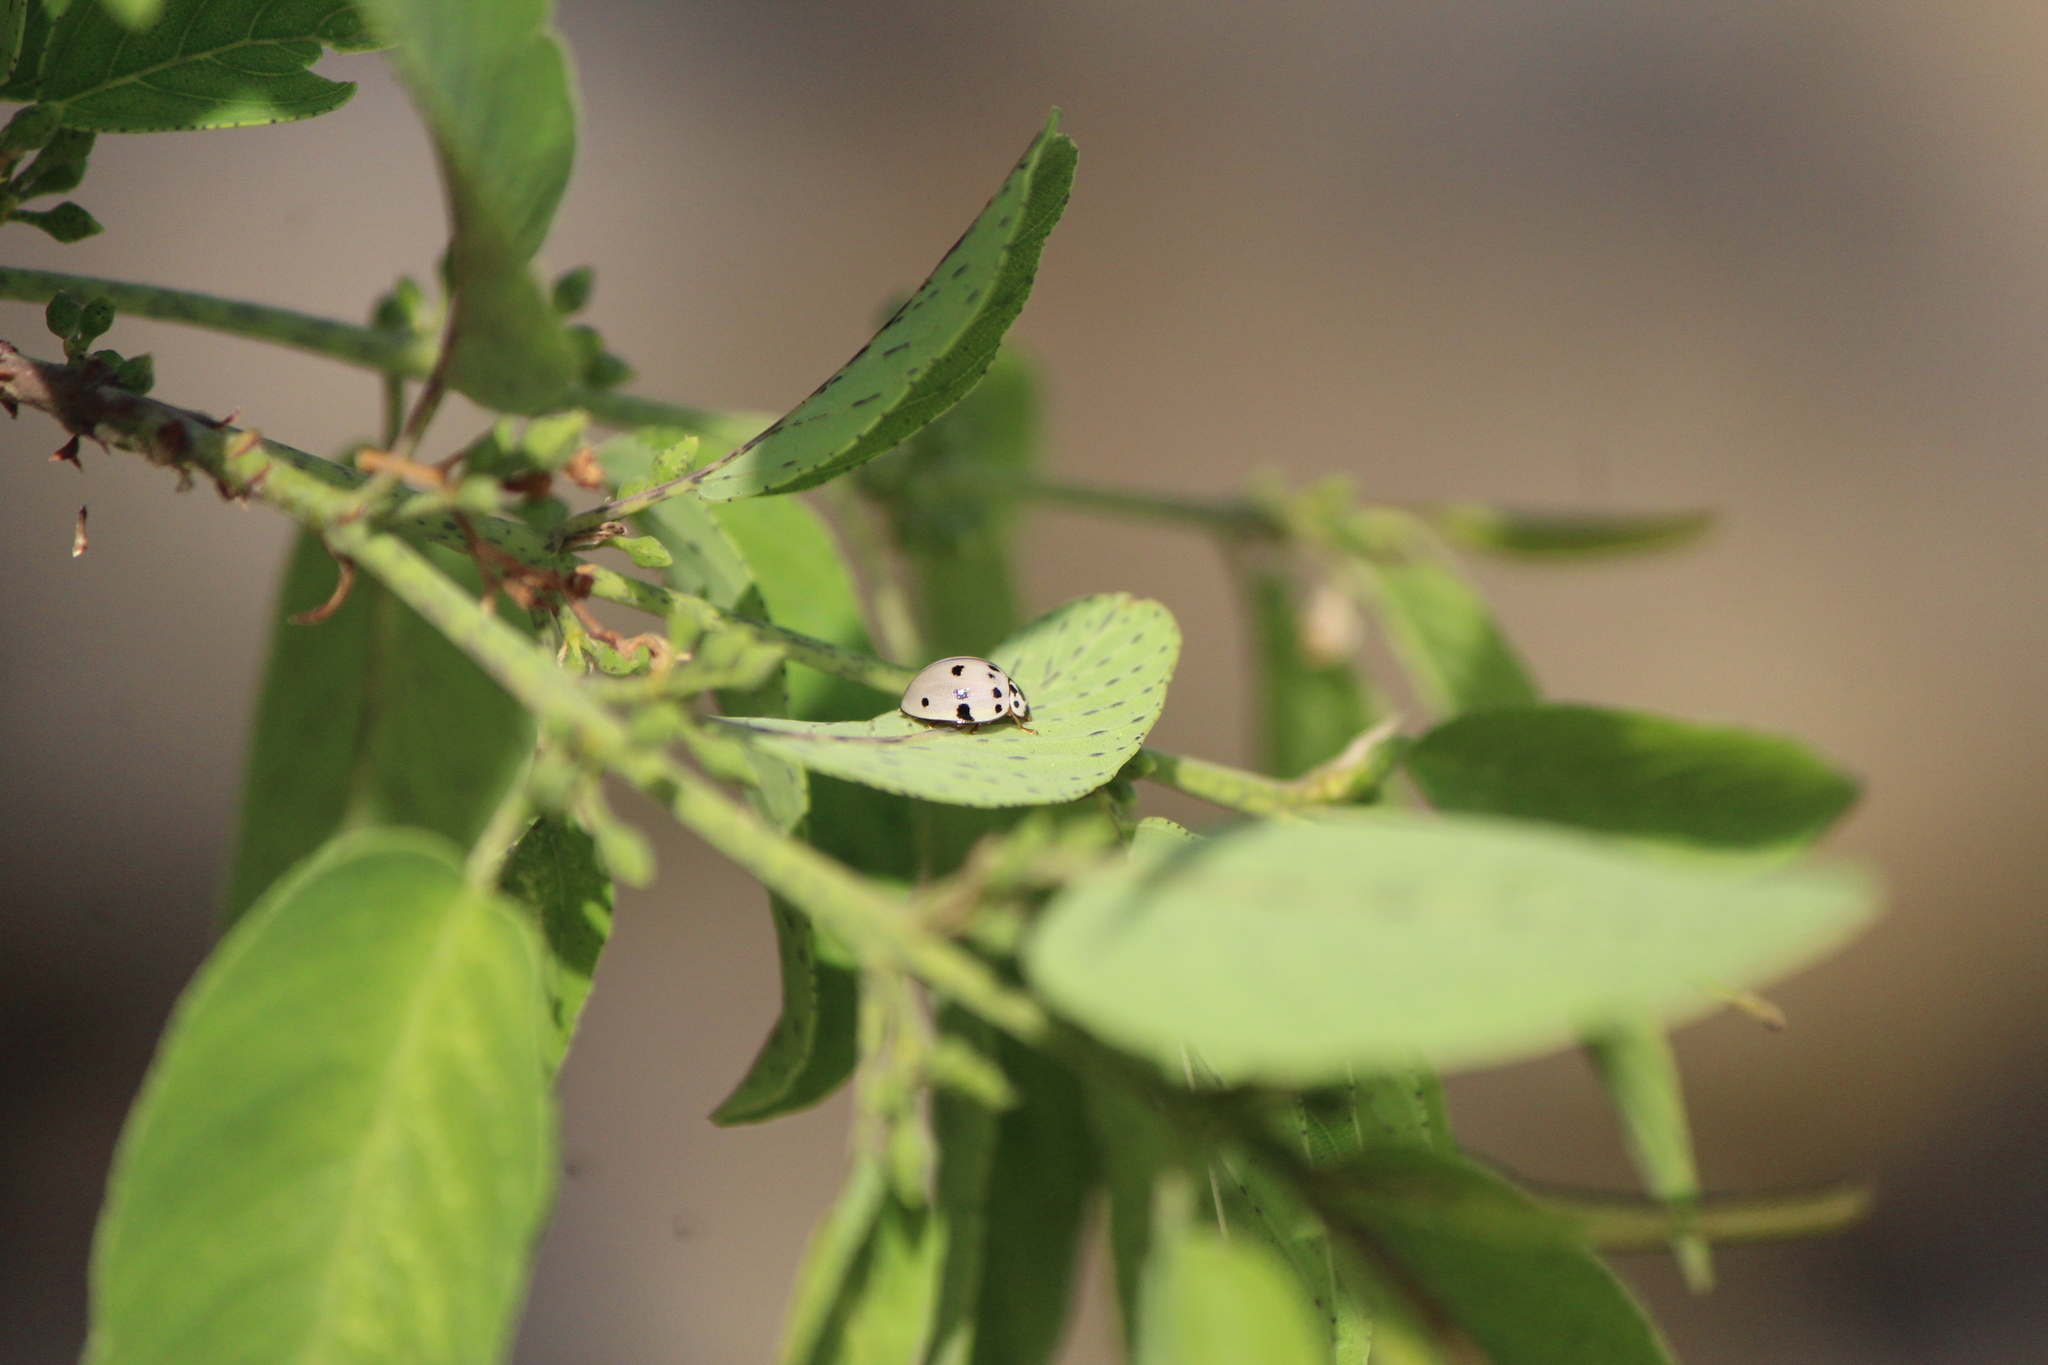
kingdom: Animalia
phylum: Arthropoda
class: Insecta
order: Coleoptera
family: Coccinellidae
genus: Olla
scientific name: Olla v-nigrum
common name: Ashy gray lady beetle
